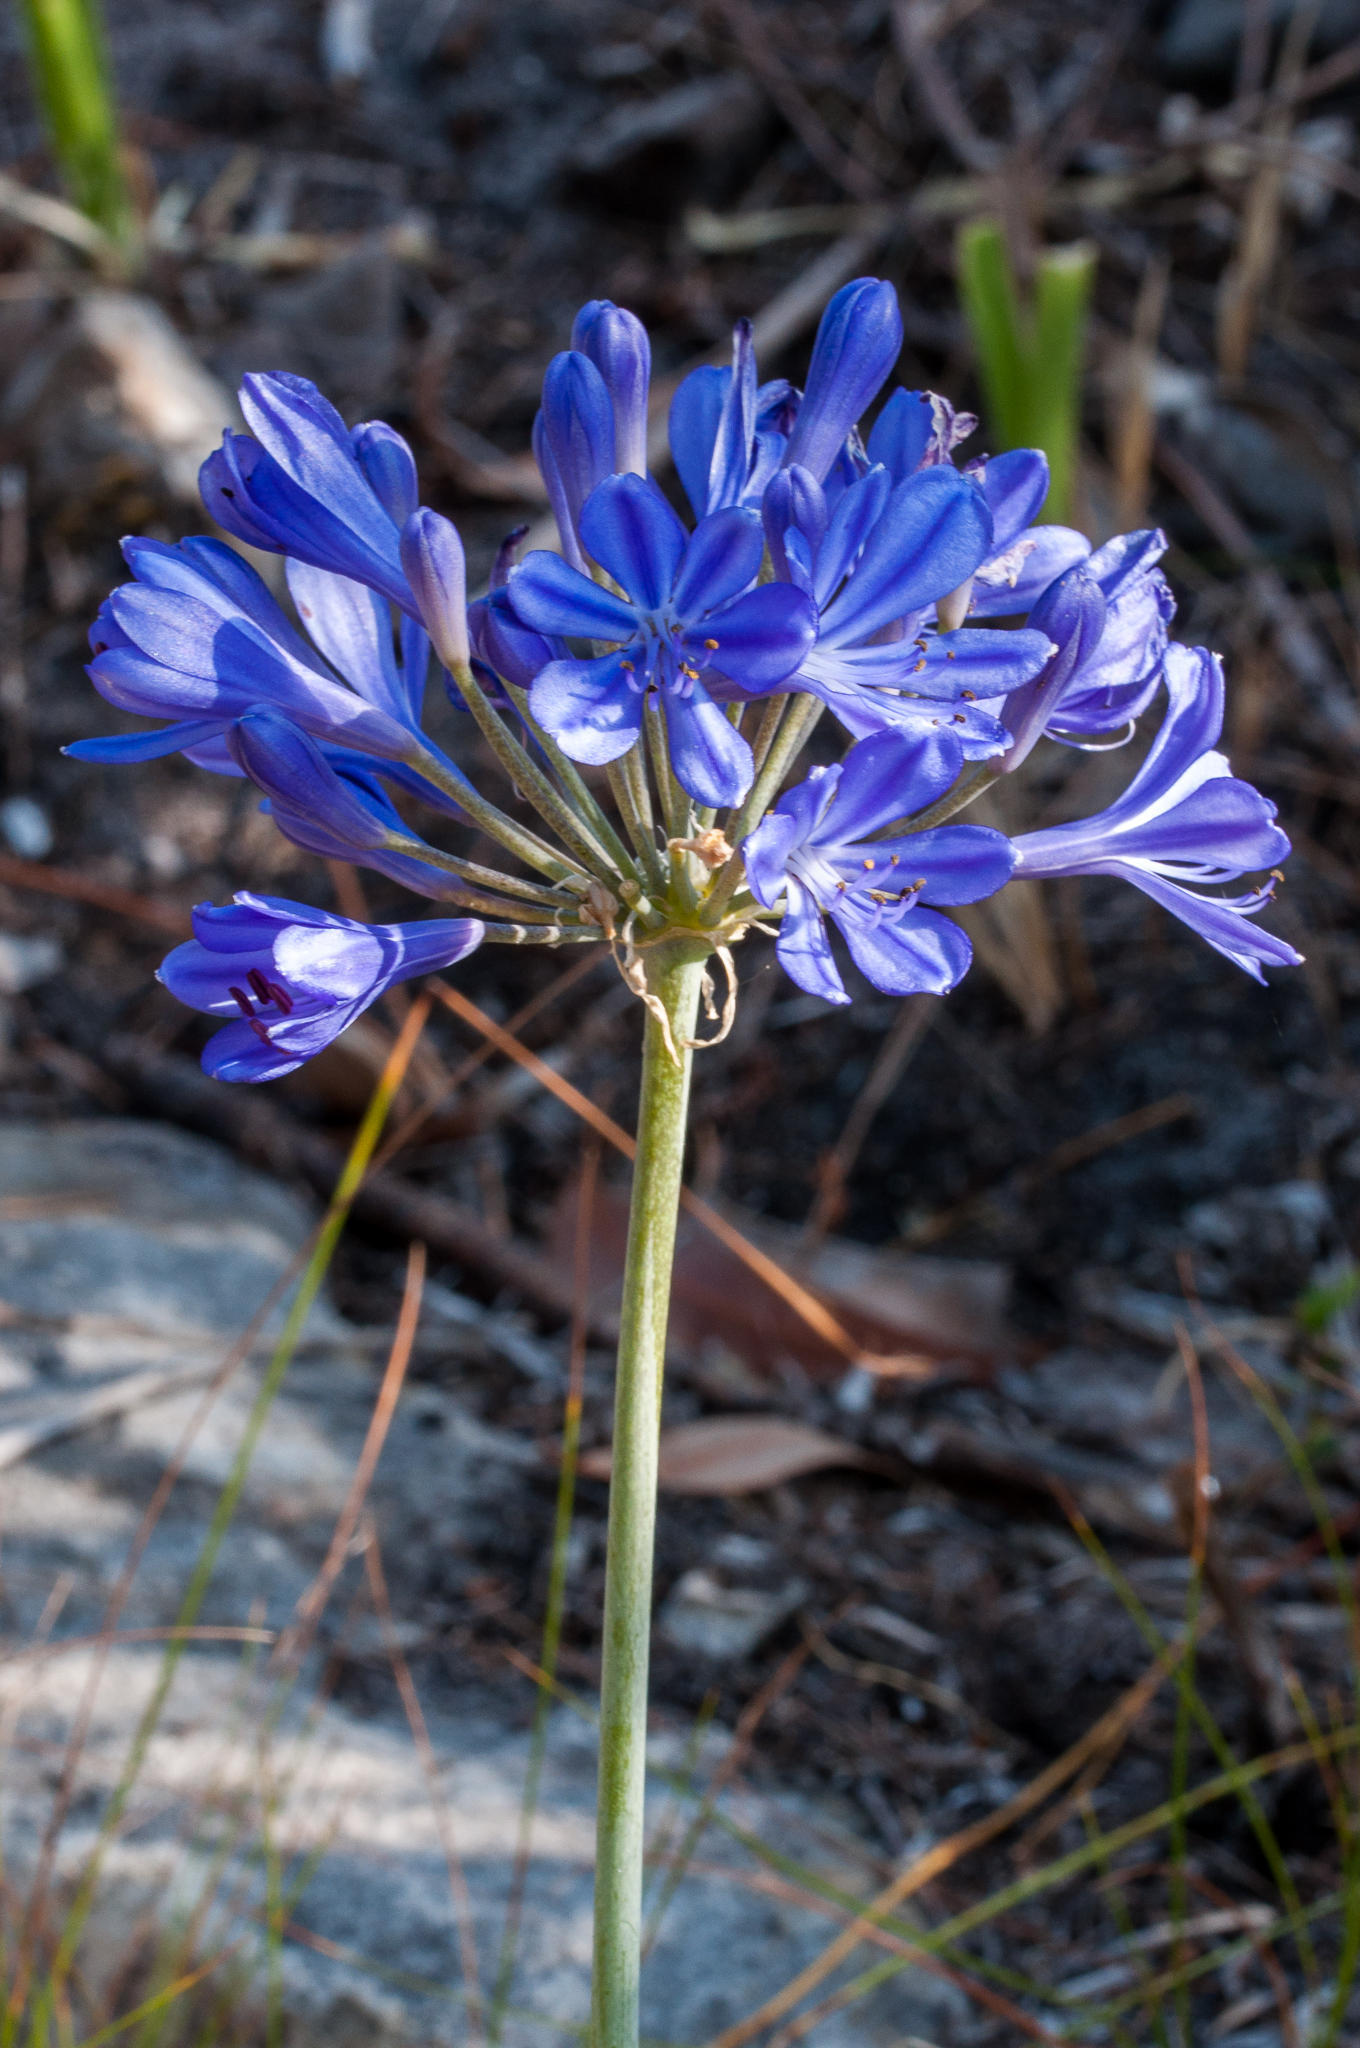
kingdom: Plantae
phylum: Tracheophyta
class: Liliopsida
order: Asparagales
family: Amaryllidaceae
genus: Agapanthus
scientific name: Agapanthus africanus
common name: Lily-of-the-nile
